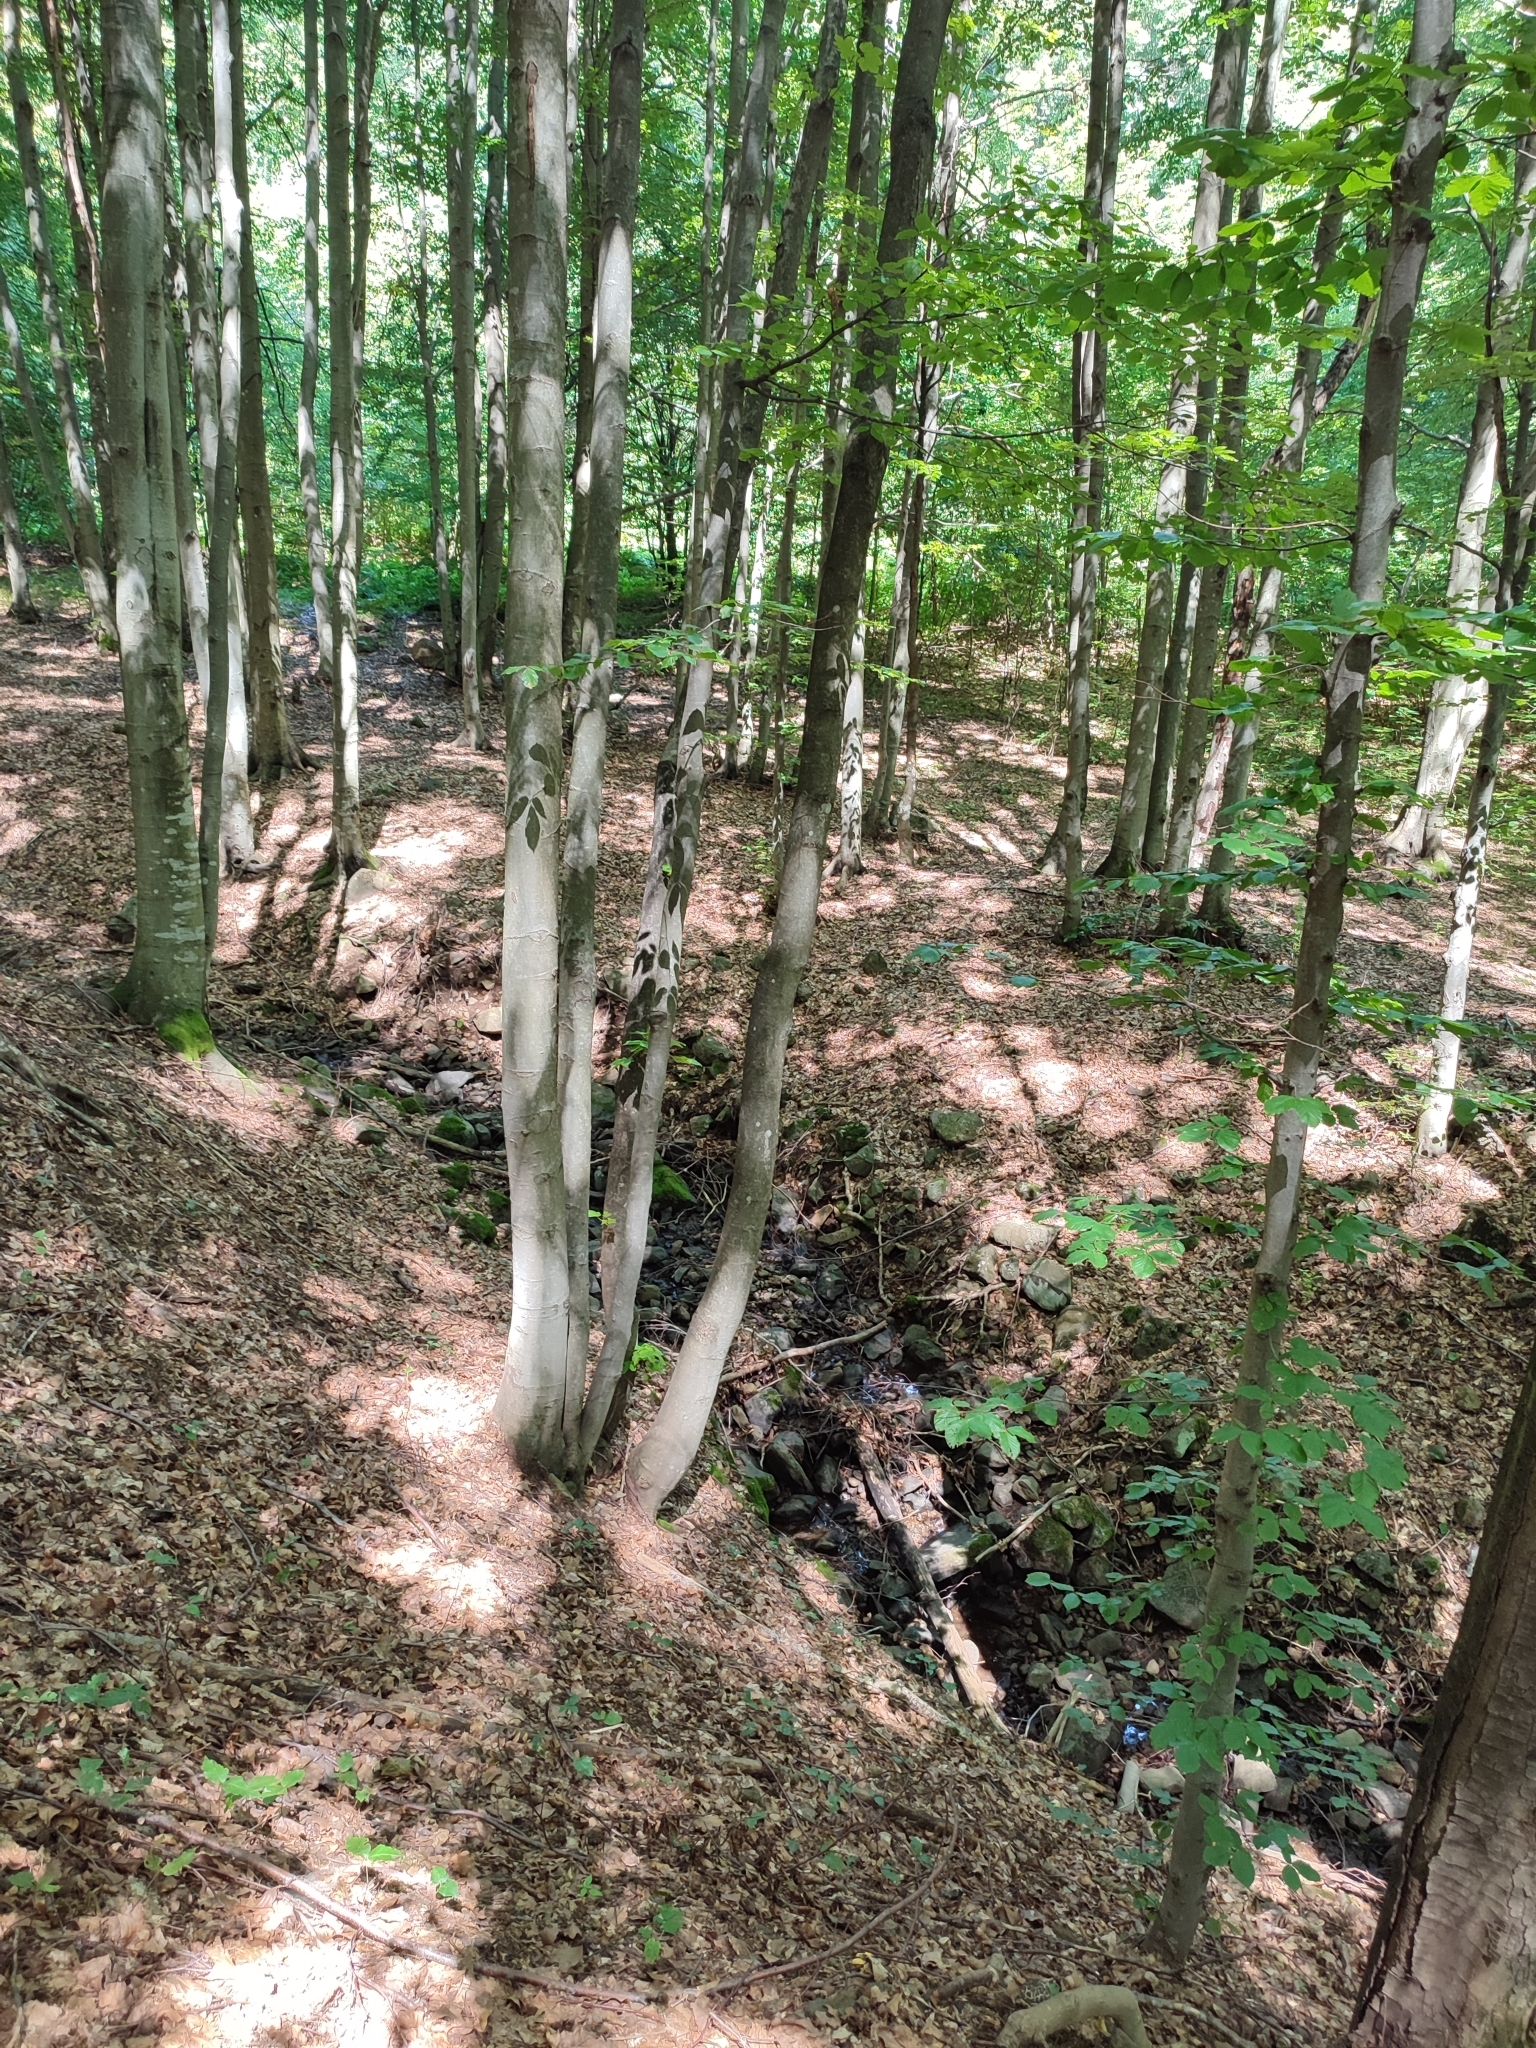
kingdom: Plantae
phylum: Tracheophyta
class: Magnoliopsida
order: Fagales
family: Fagaceae
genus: Fagus
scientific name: Fagus sylvatica
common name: Beech
